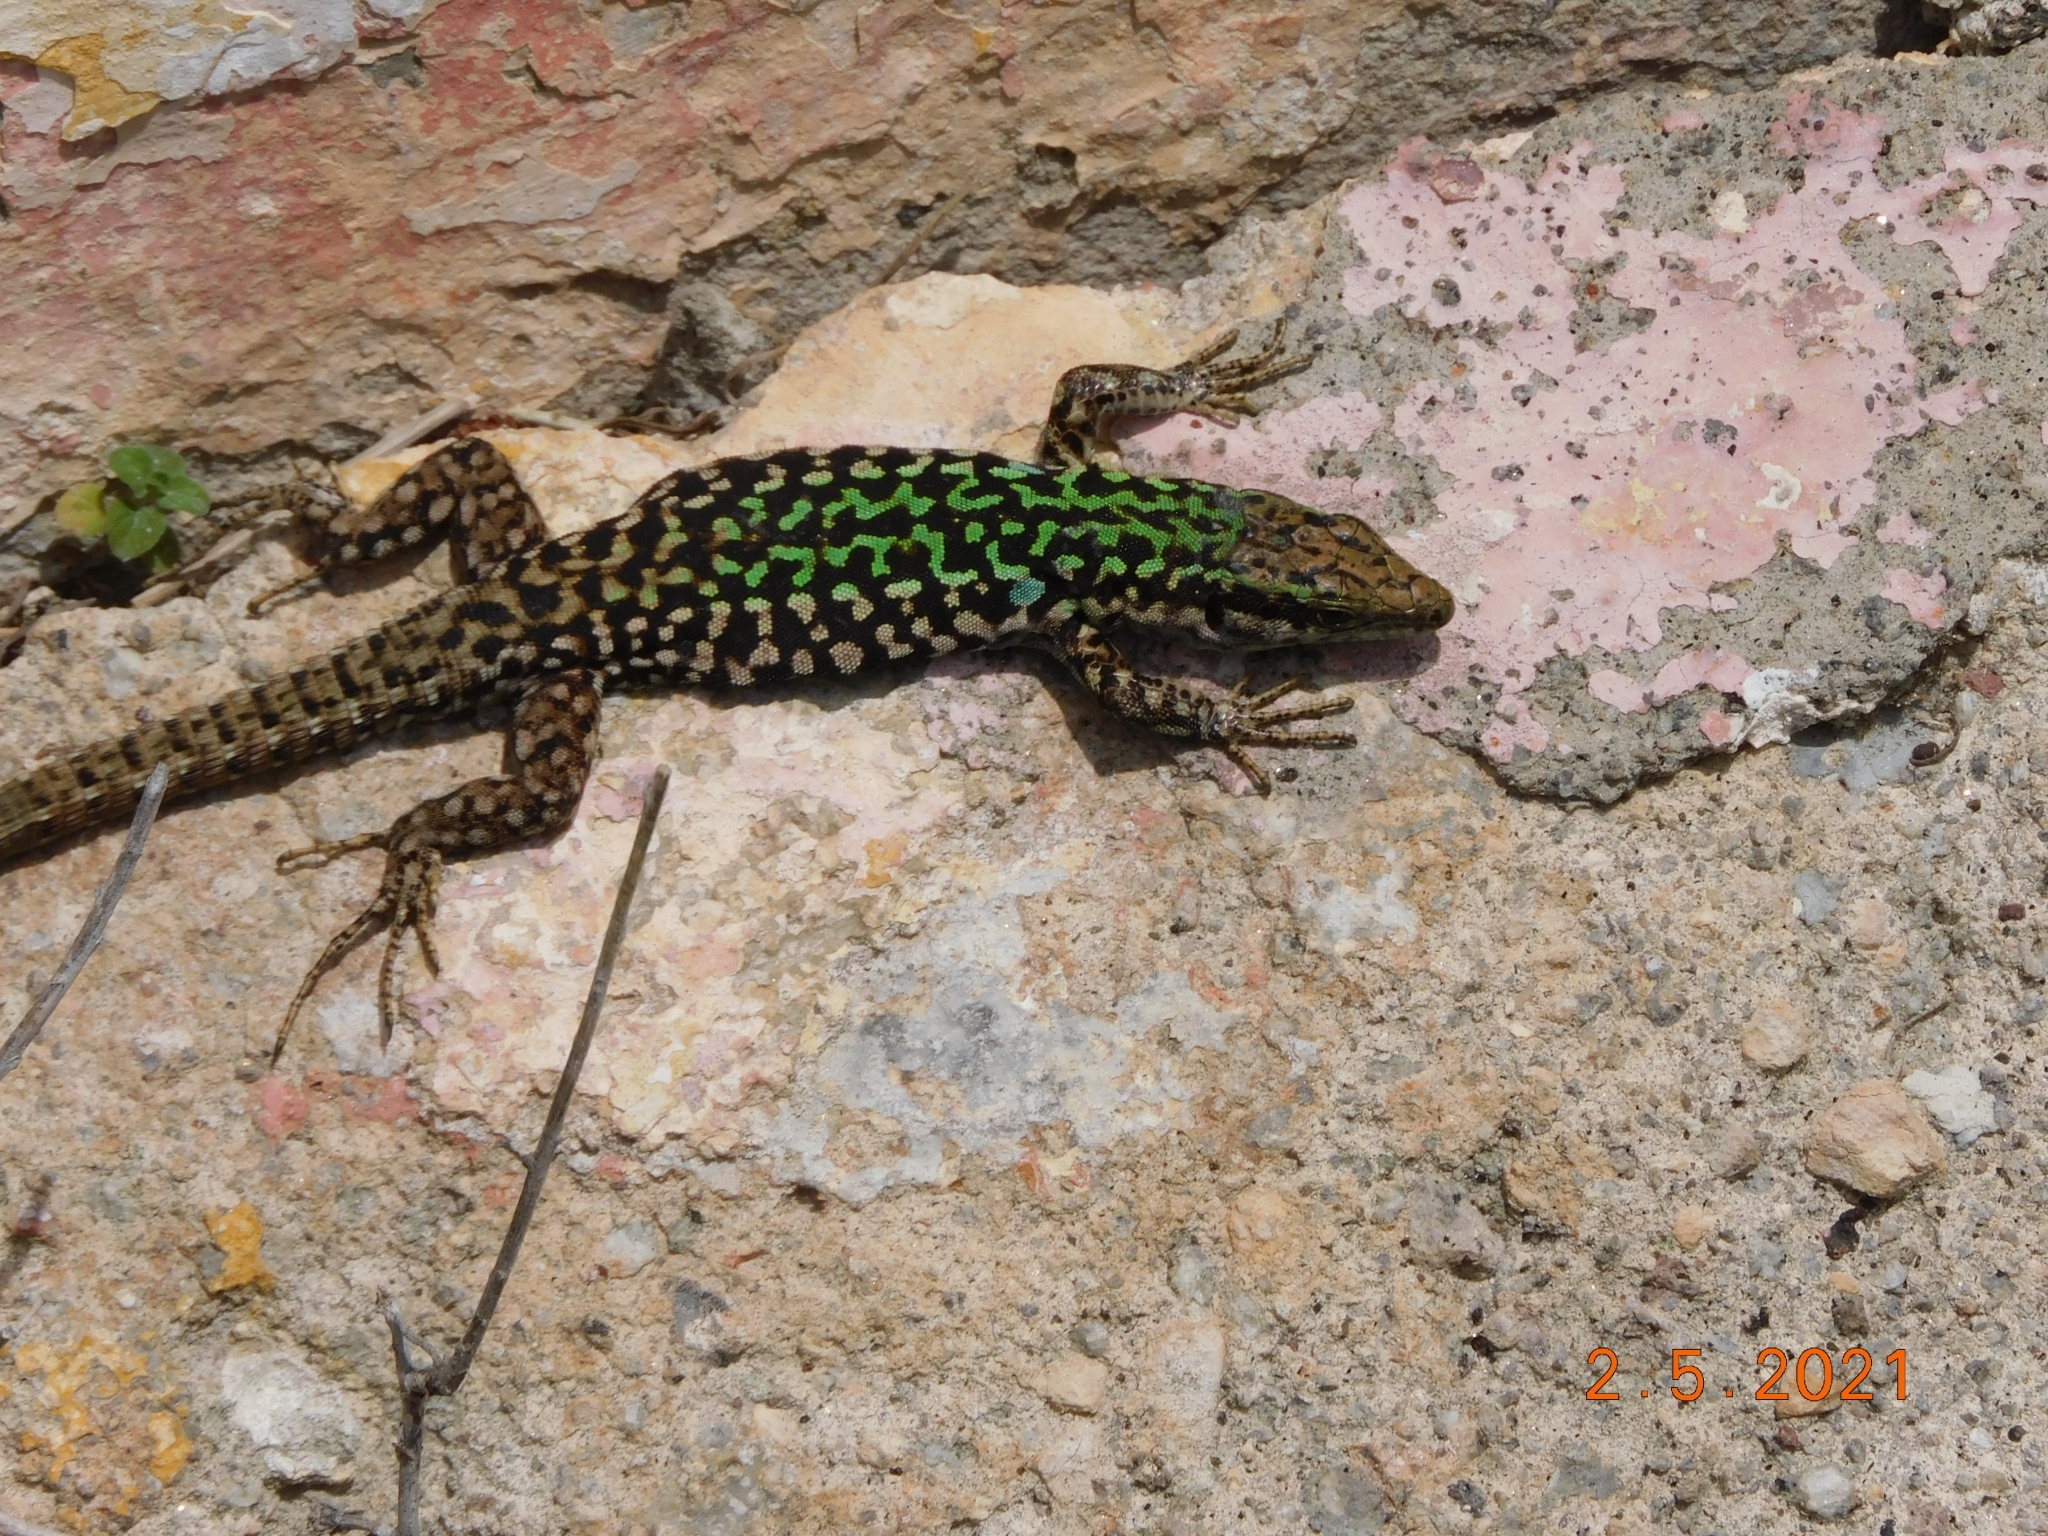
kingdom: Animalia
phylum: Chordata
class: Squamata
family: Lacertidae
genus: Podarcis
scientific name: Podarcis siculus
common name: Italian wall lizard
